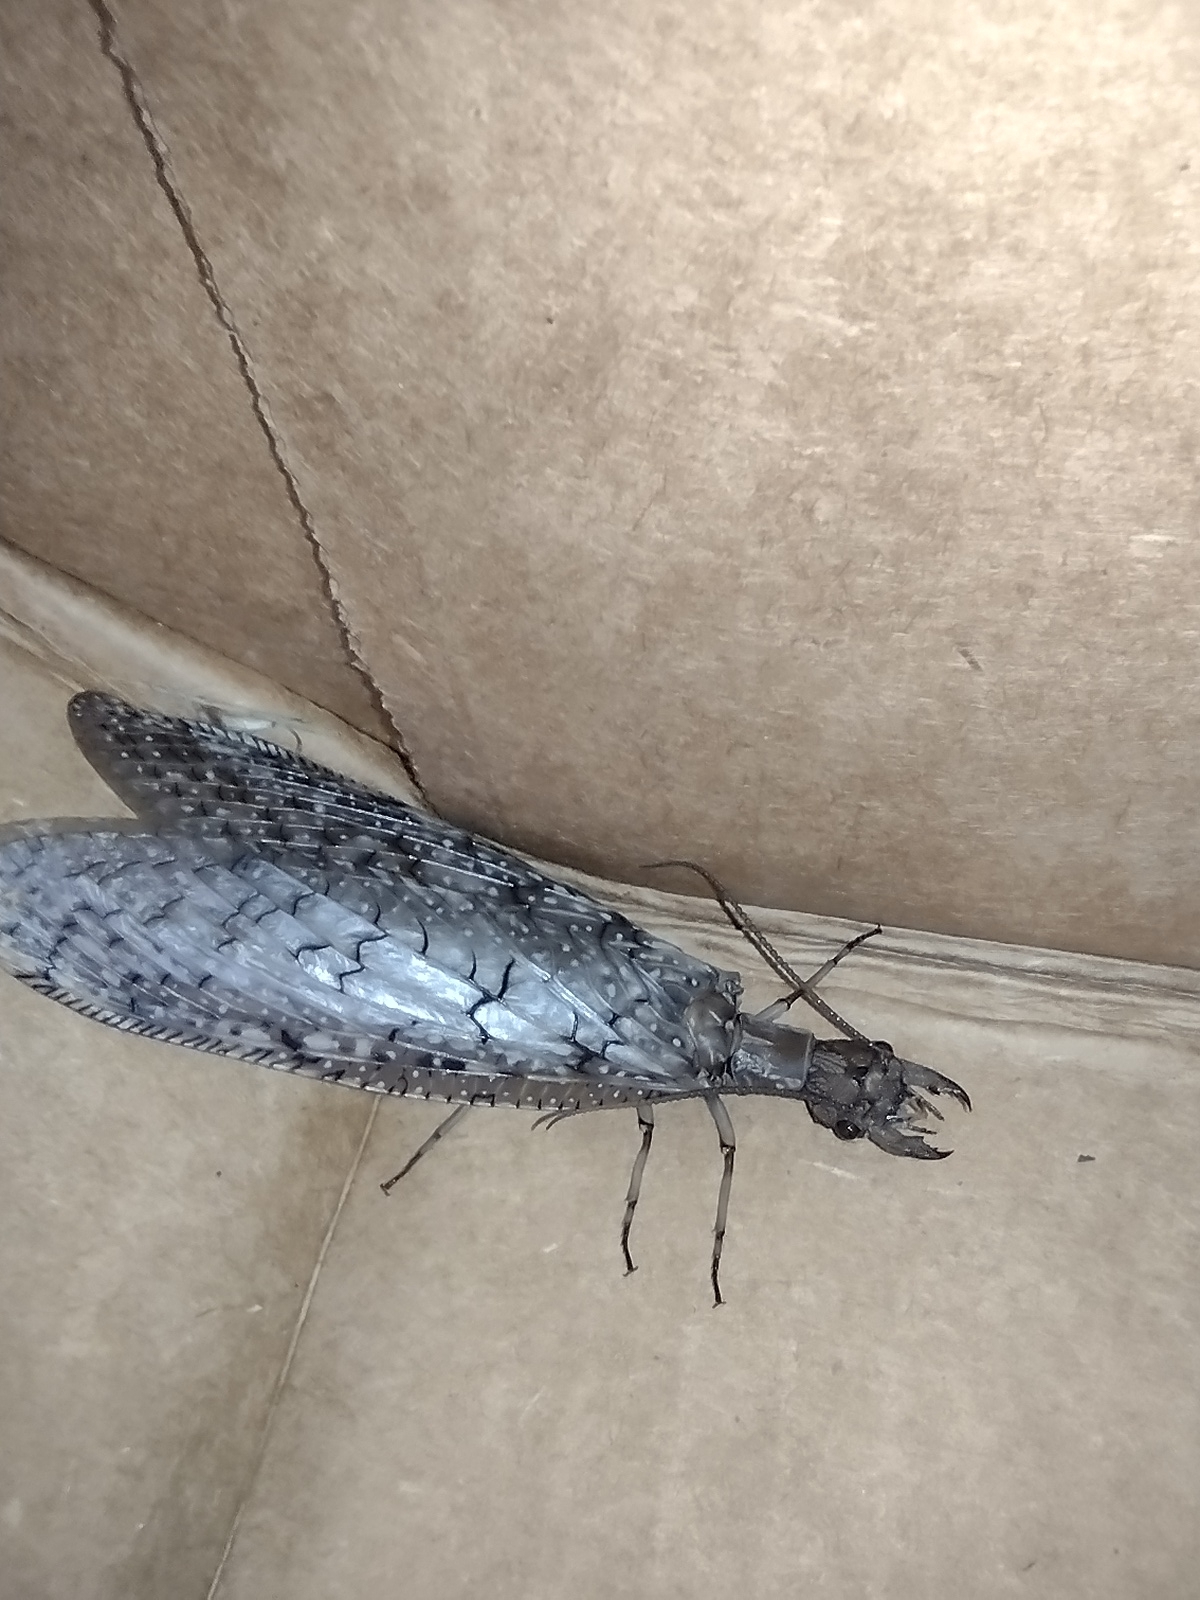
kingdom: Animalia
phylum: Arthropoda
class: Insecta
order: Megaloptera
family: Corydalidae
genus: Corydalus
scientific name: Corydalus cornutus
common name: Dobsonfly
